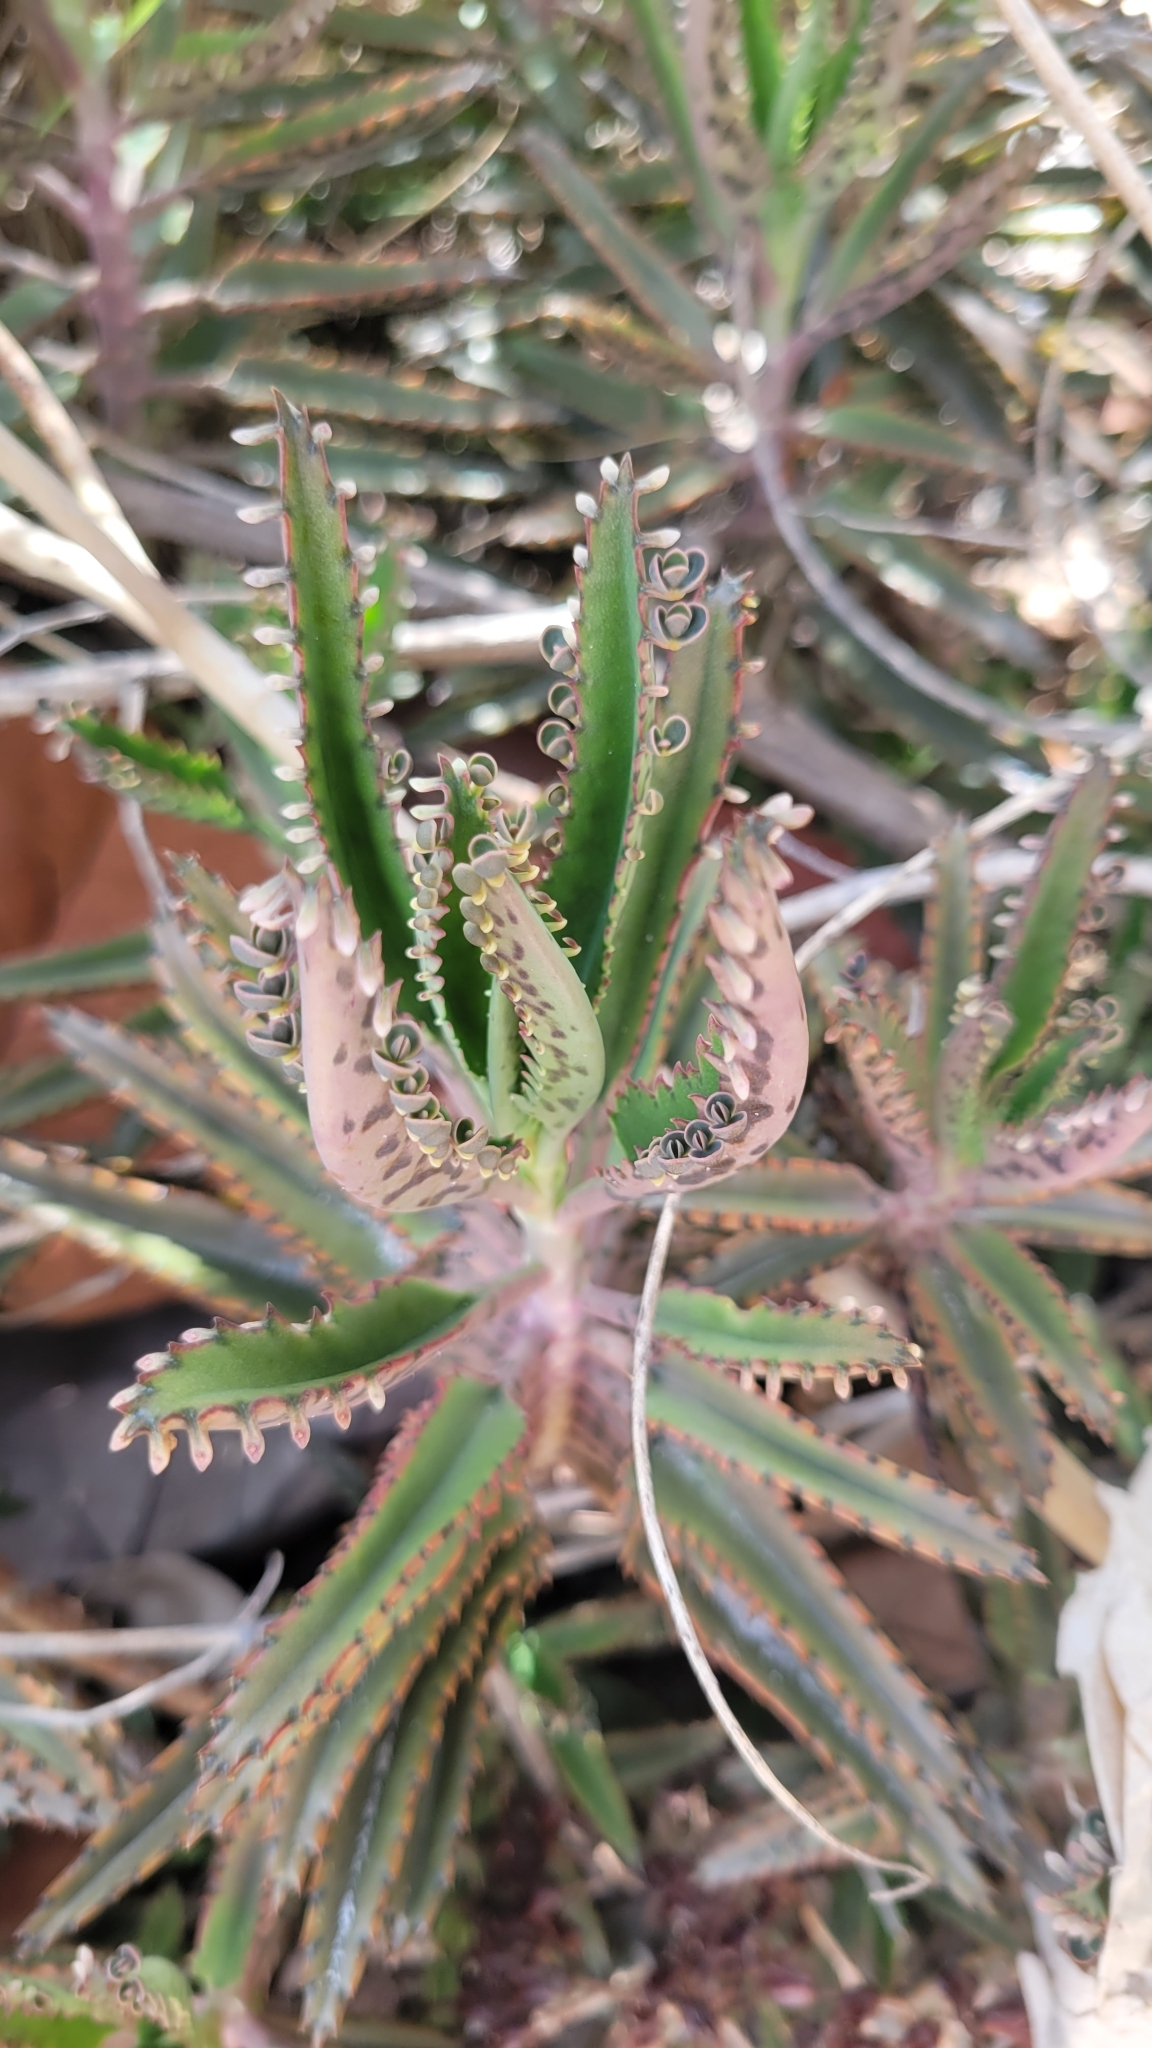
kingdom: Plantae
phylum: Tracheophyta
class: Magnoliopsida
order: Saxifragales
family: Crassulaceae
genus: Kalanchoe
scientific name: Kalanchoe houghtonii
